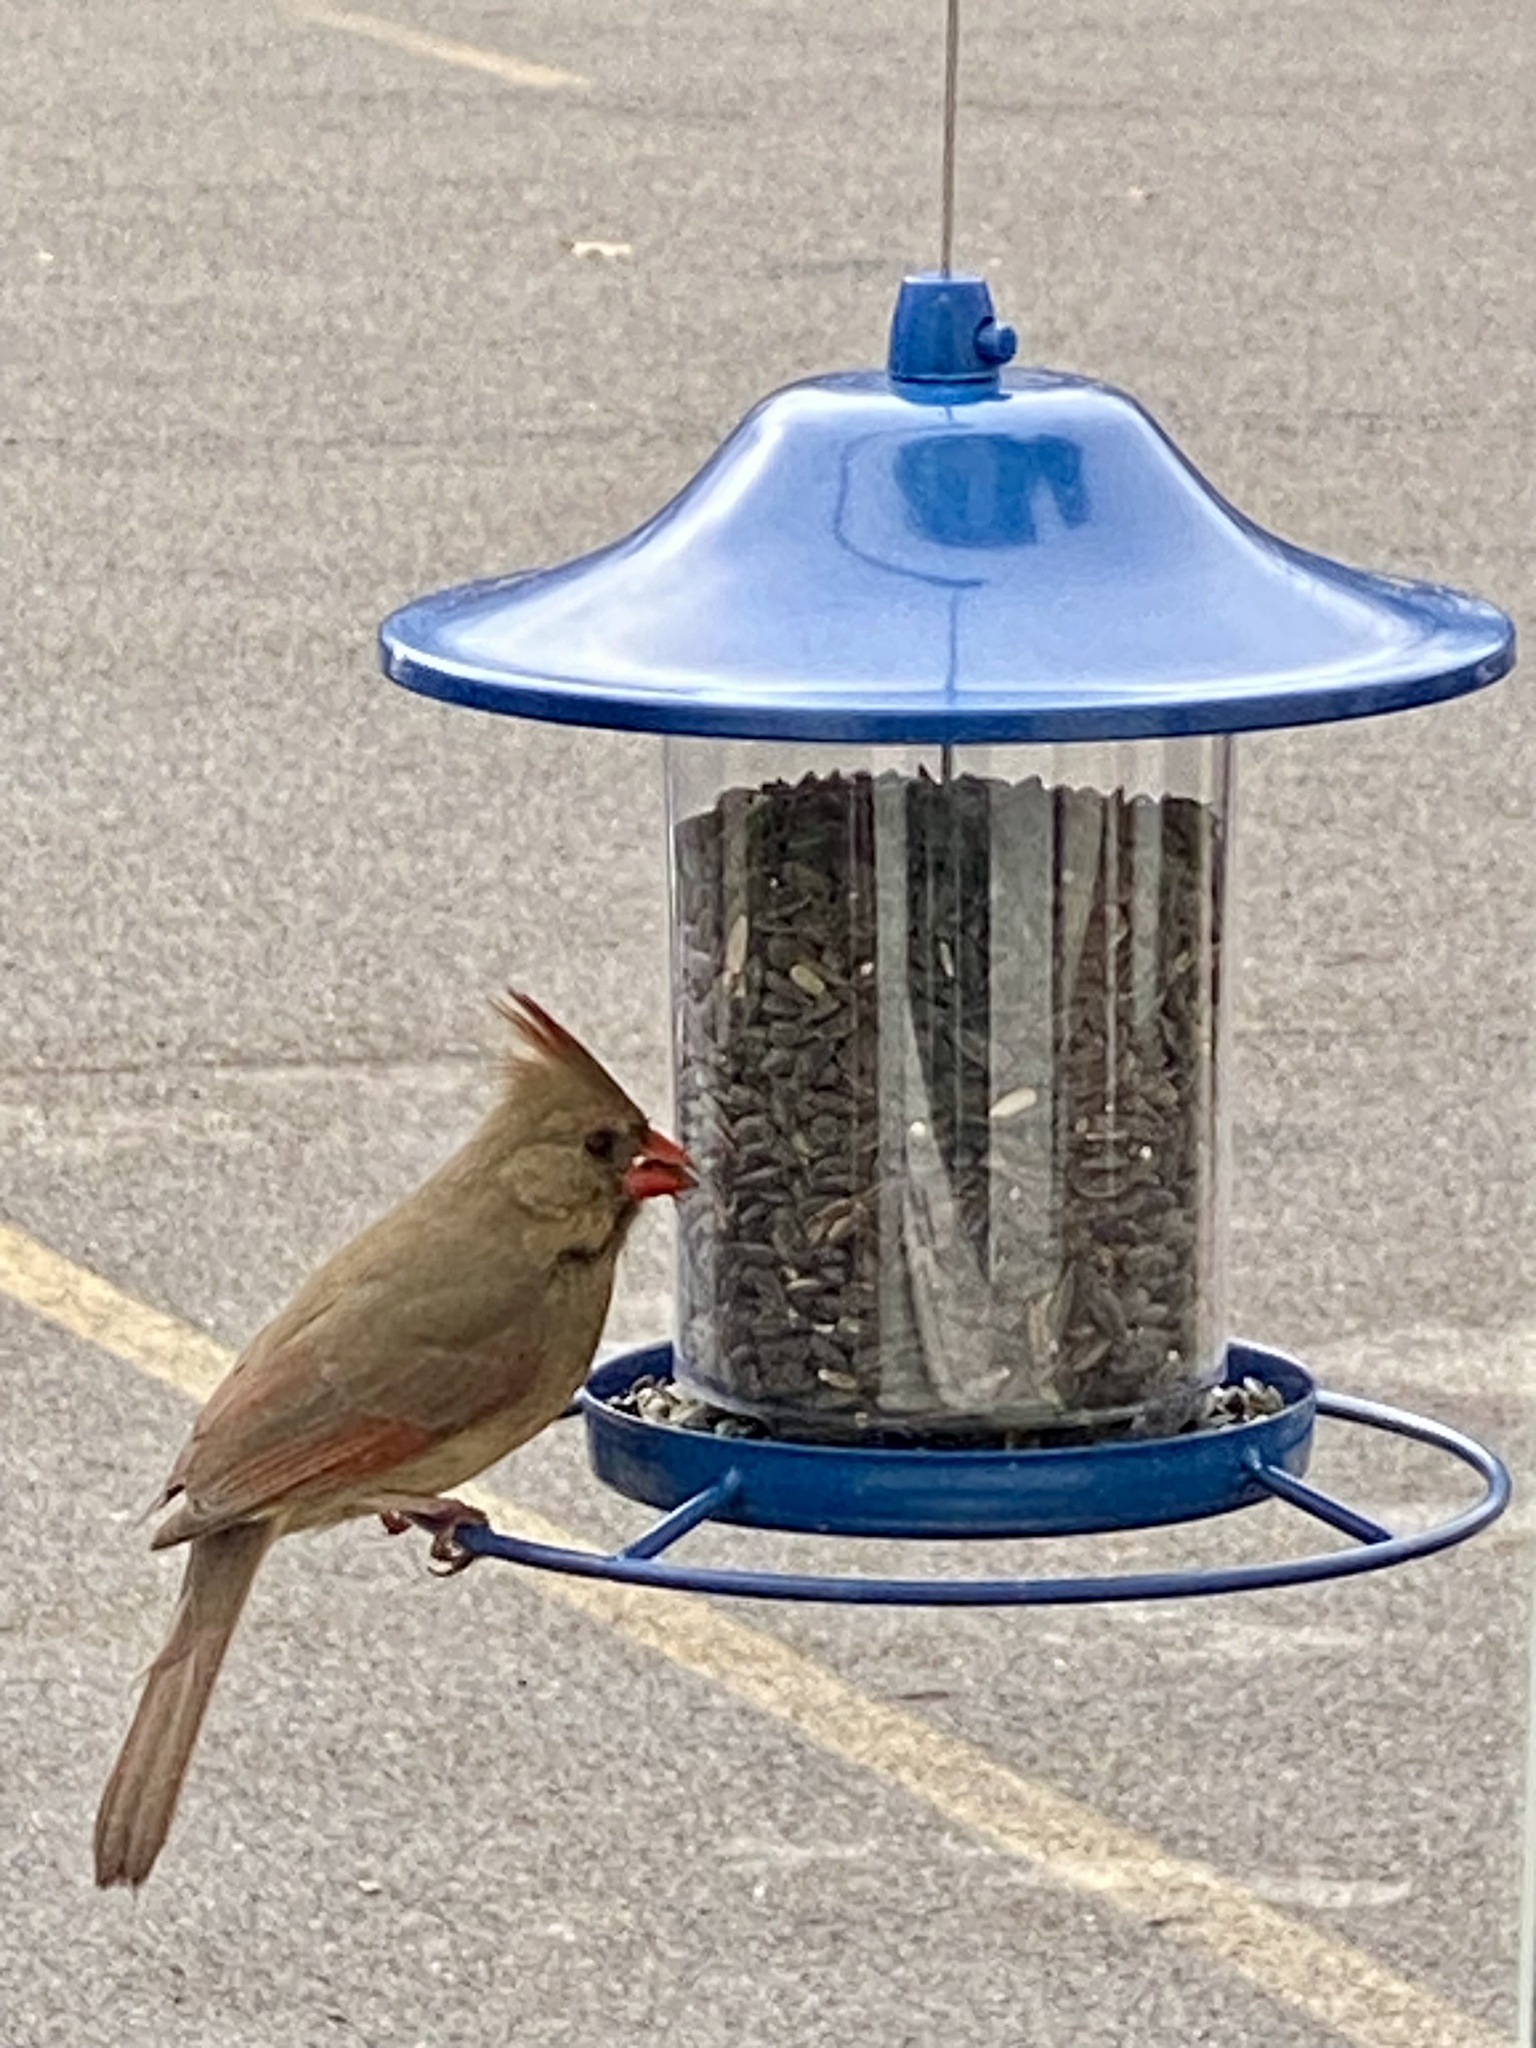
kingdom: Animalia
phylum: Chordata
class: Aves
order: Passeriformes
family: Cardinalidae
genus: Cardinalis
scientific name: Cardinalis cardinalis
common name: Northern cardinal
